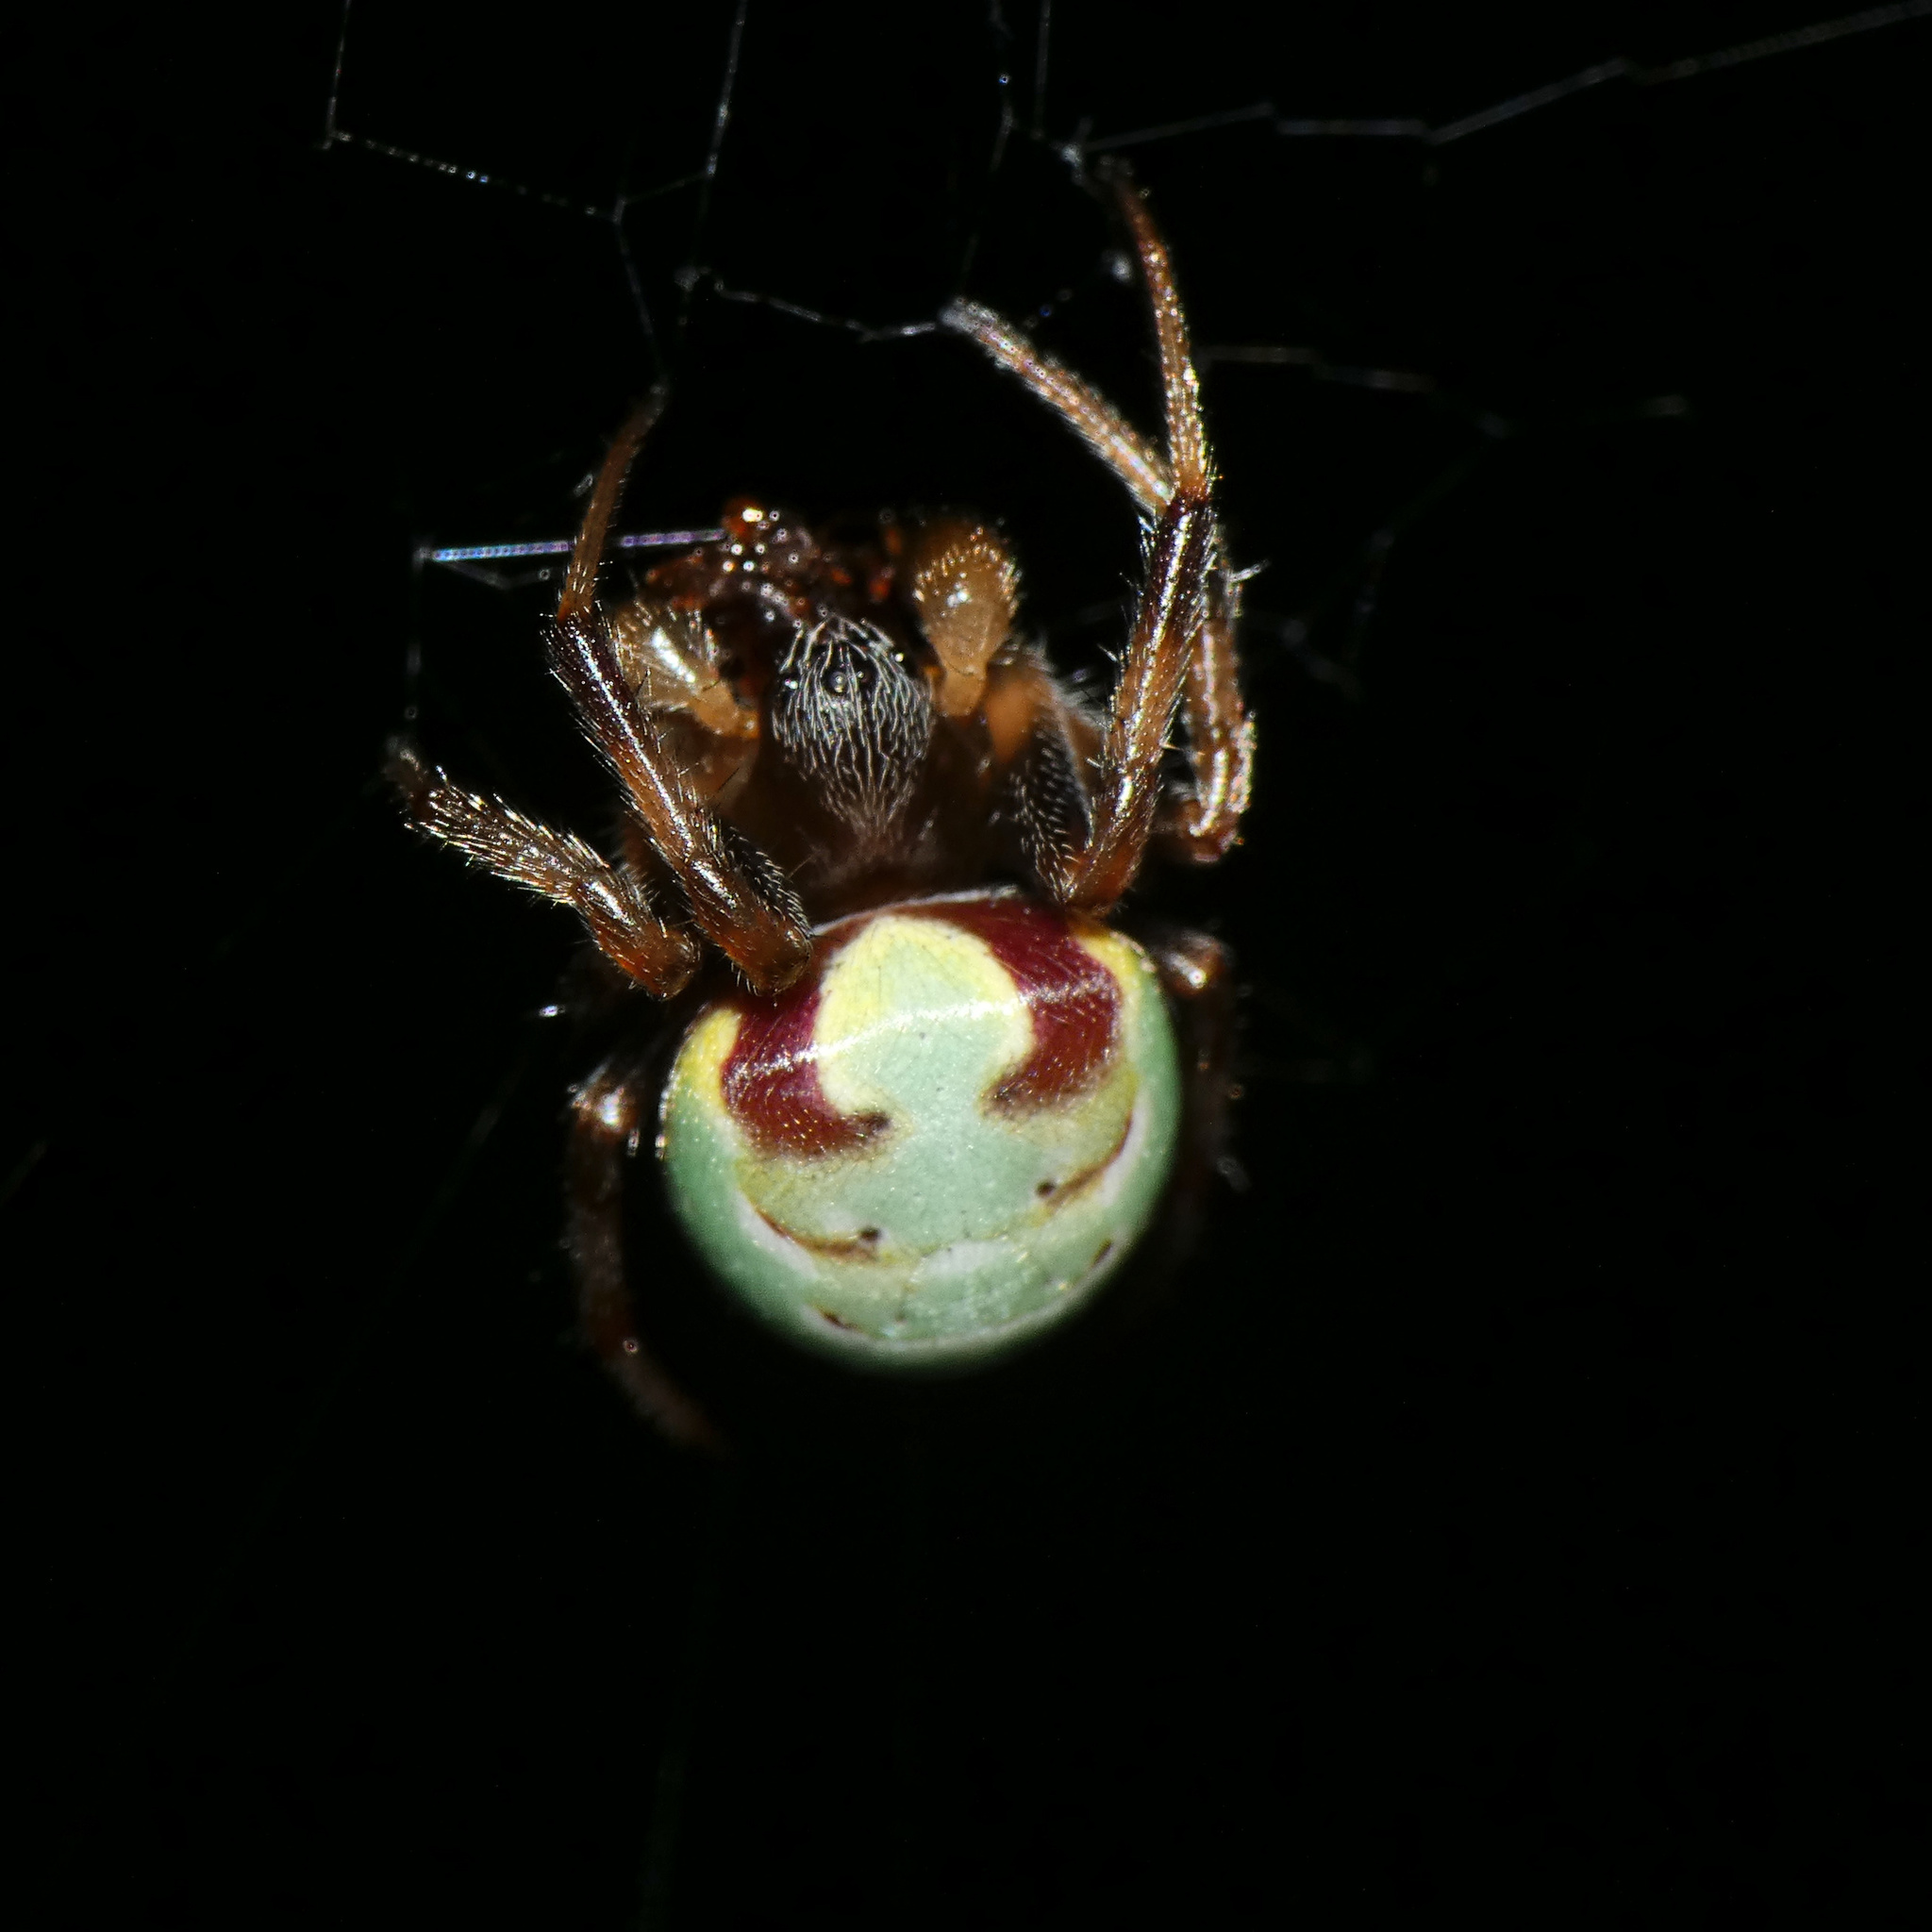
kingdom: Animalia
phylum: Arthropoda
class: Arachnida
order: Araneae
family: Araneidae
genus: Araneus
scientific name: Araneus apricus
